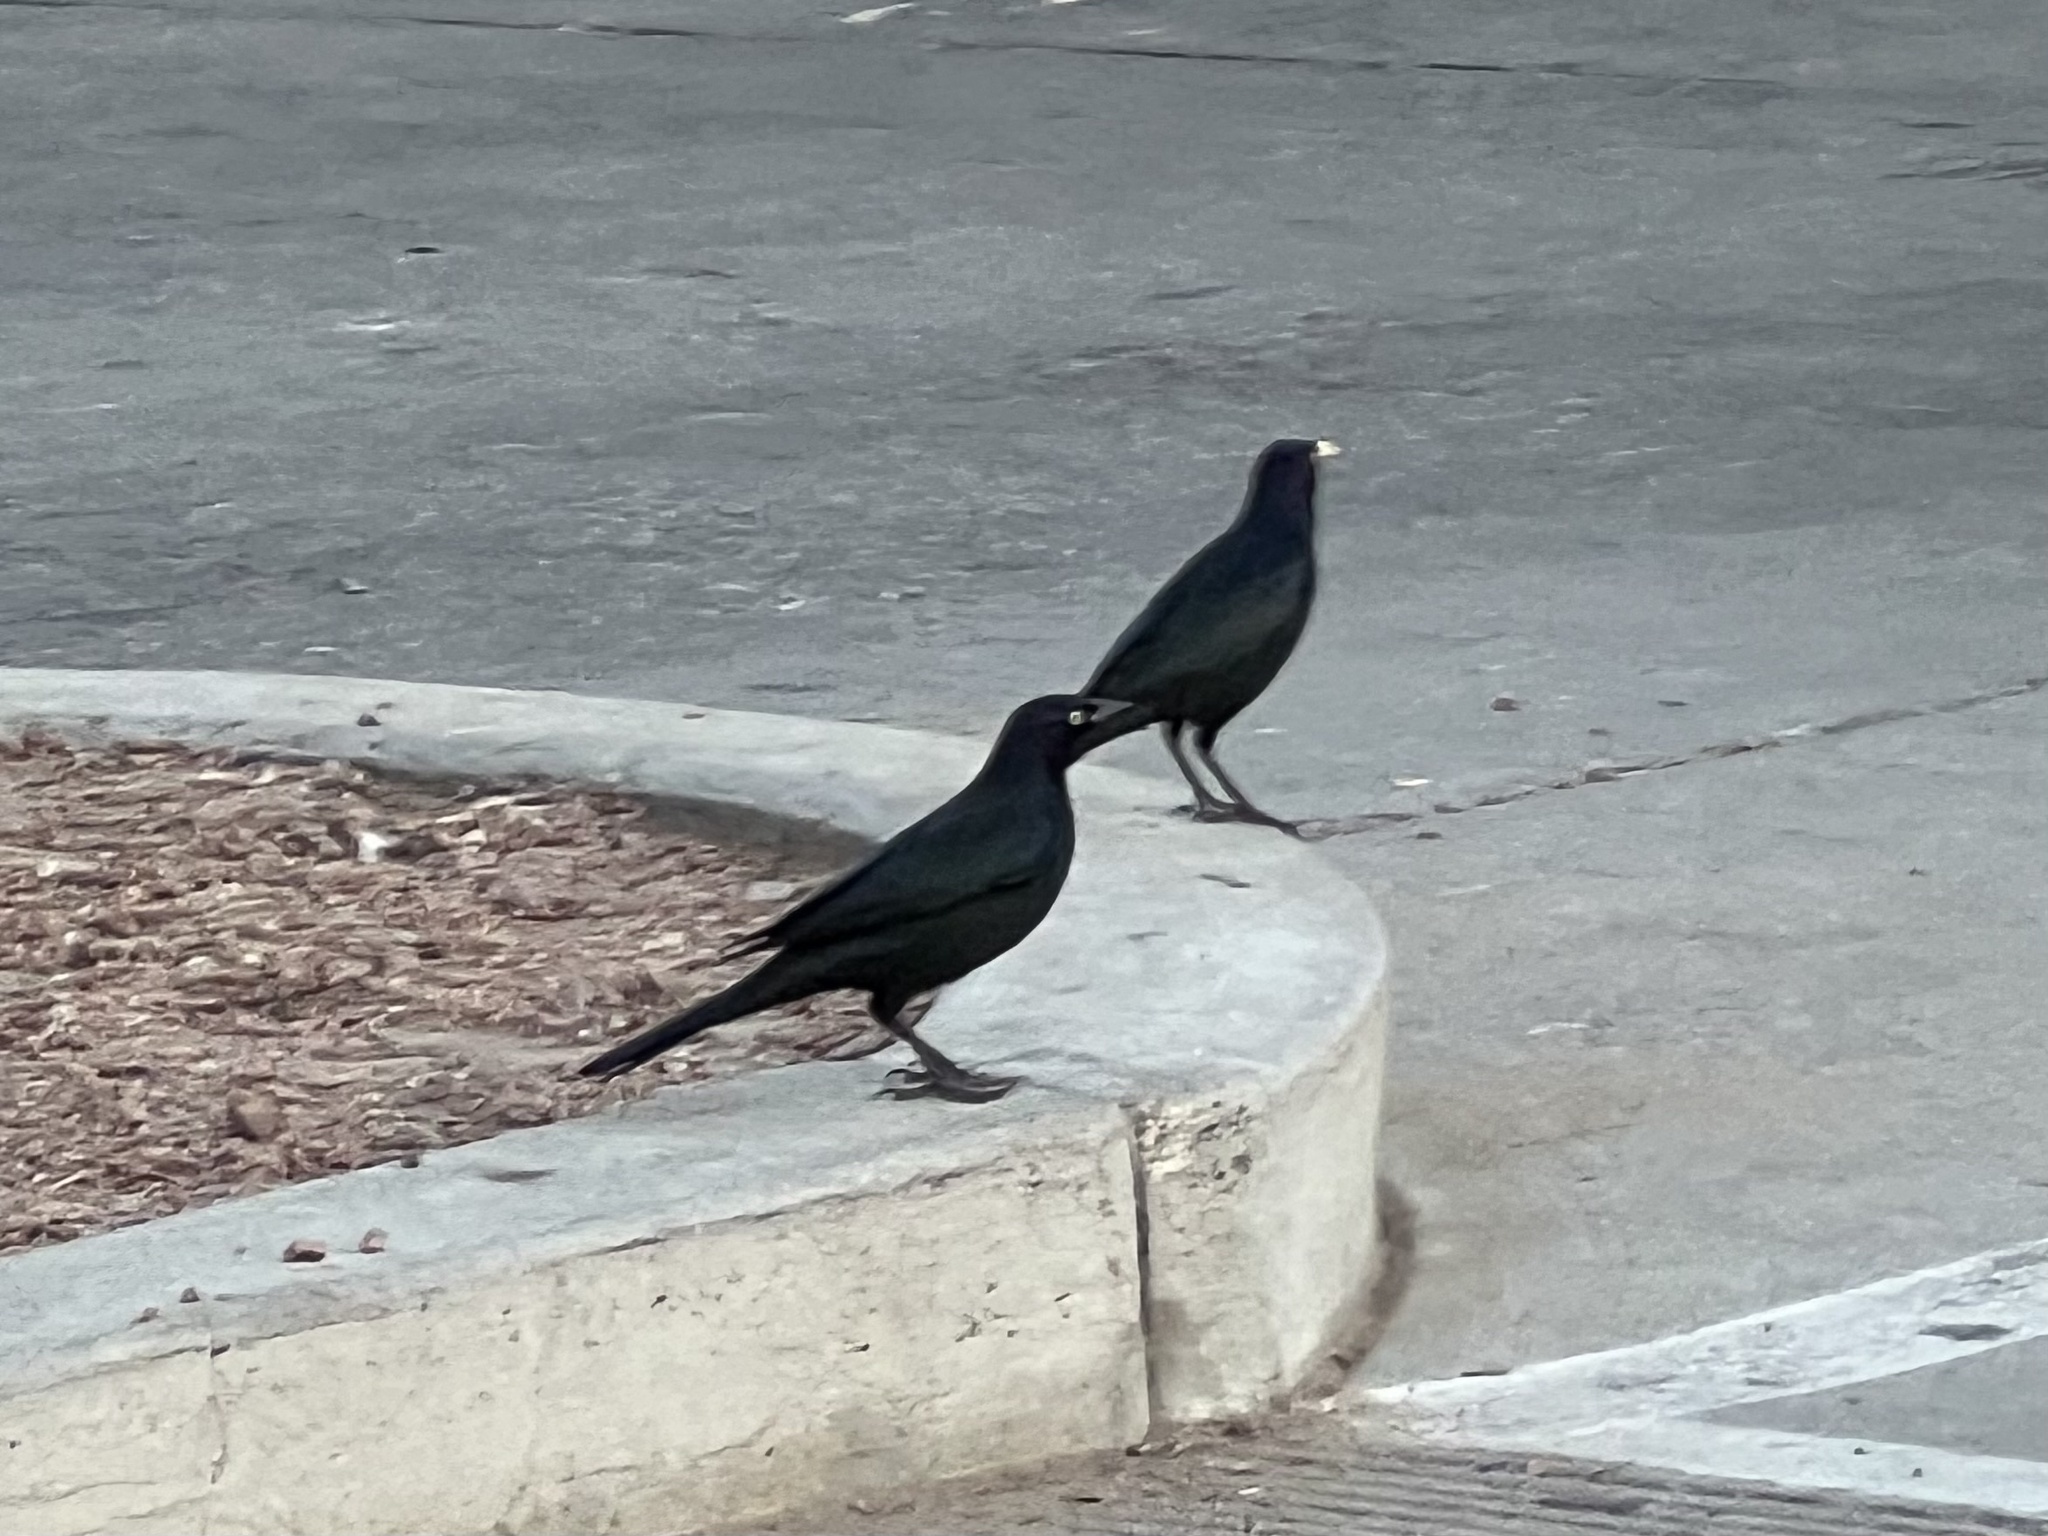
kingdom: Animalia
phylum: Chordata
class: Aves
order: Passeriformes
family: Icteridae
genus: Euphagus
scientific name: Euphagus cyanocephalus
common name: Brewer's blackbird
